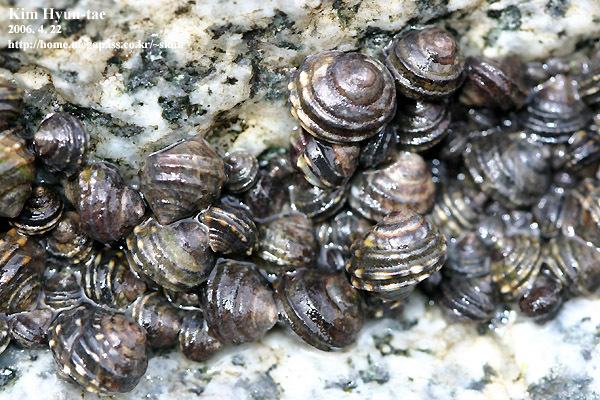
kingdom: Animalia
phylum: Mollusca
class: Gastropoda
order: Littorinimorpha
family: Littorinidae
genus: Littorina
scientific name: Littorina brevicula
